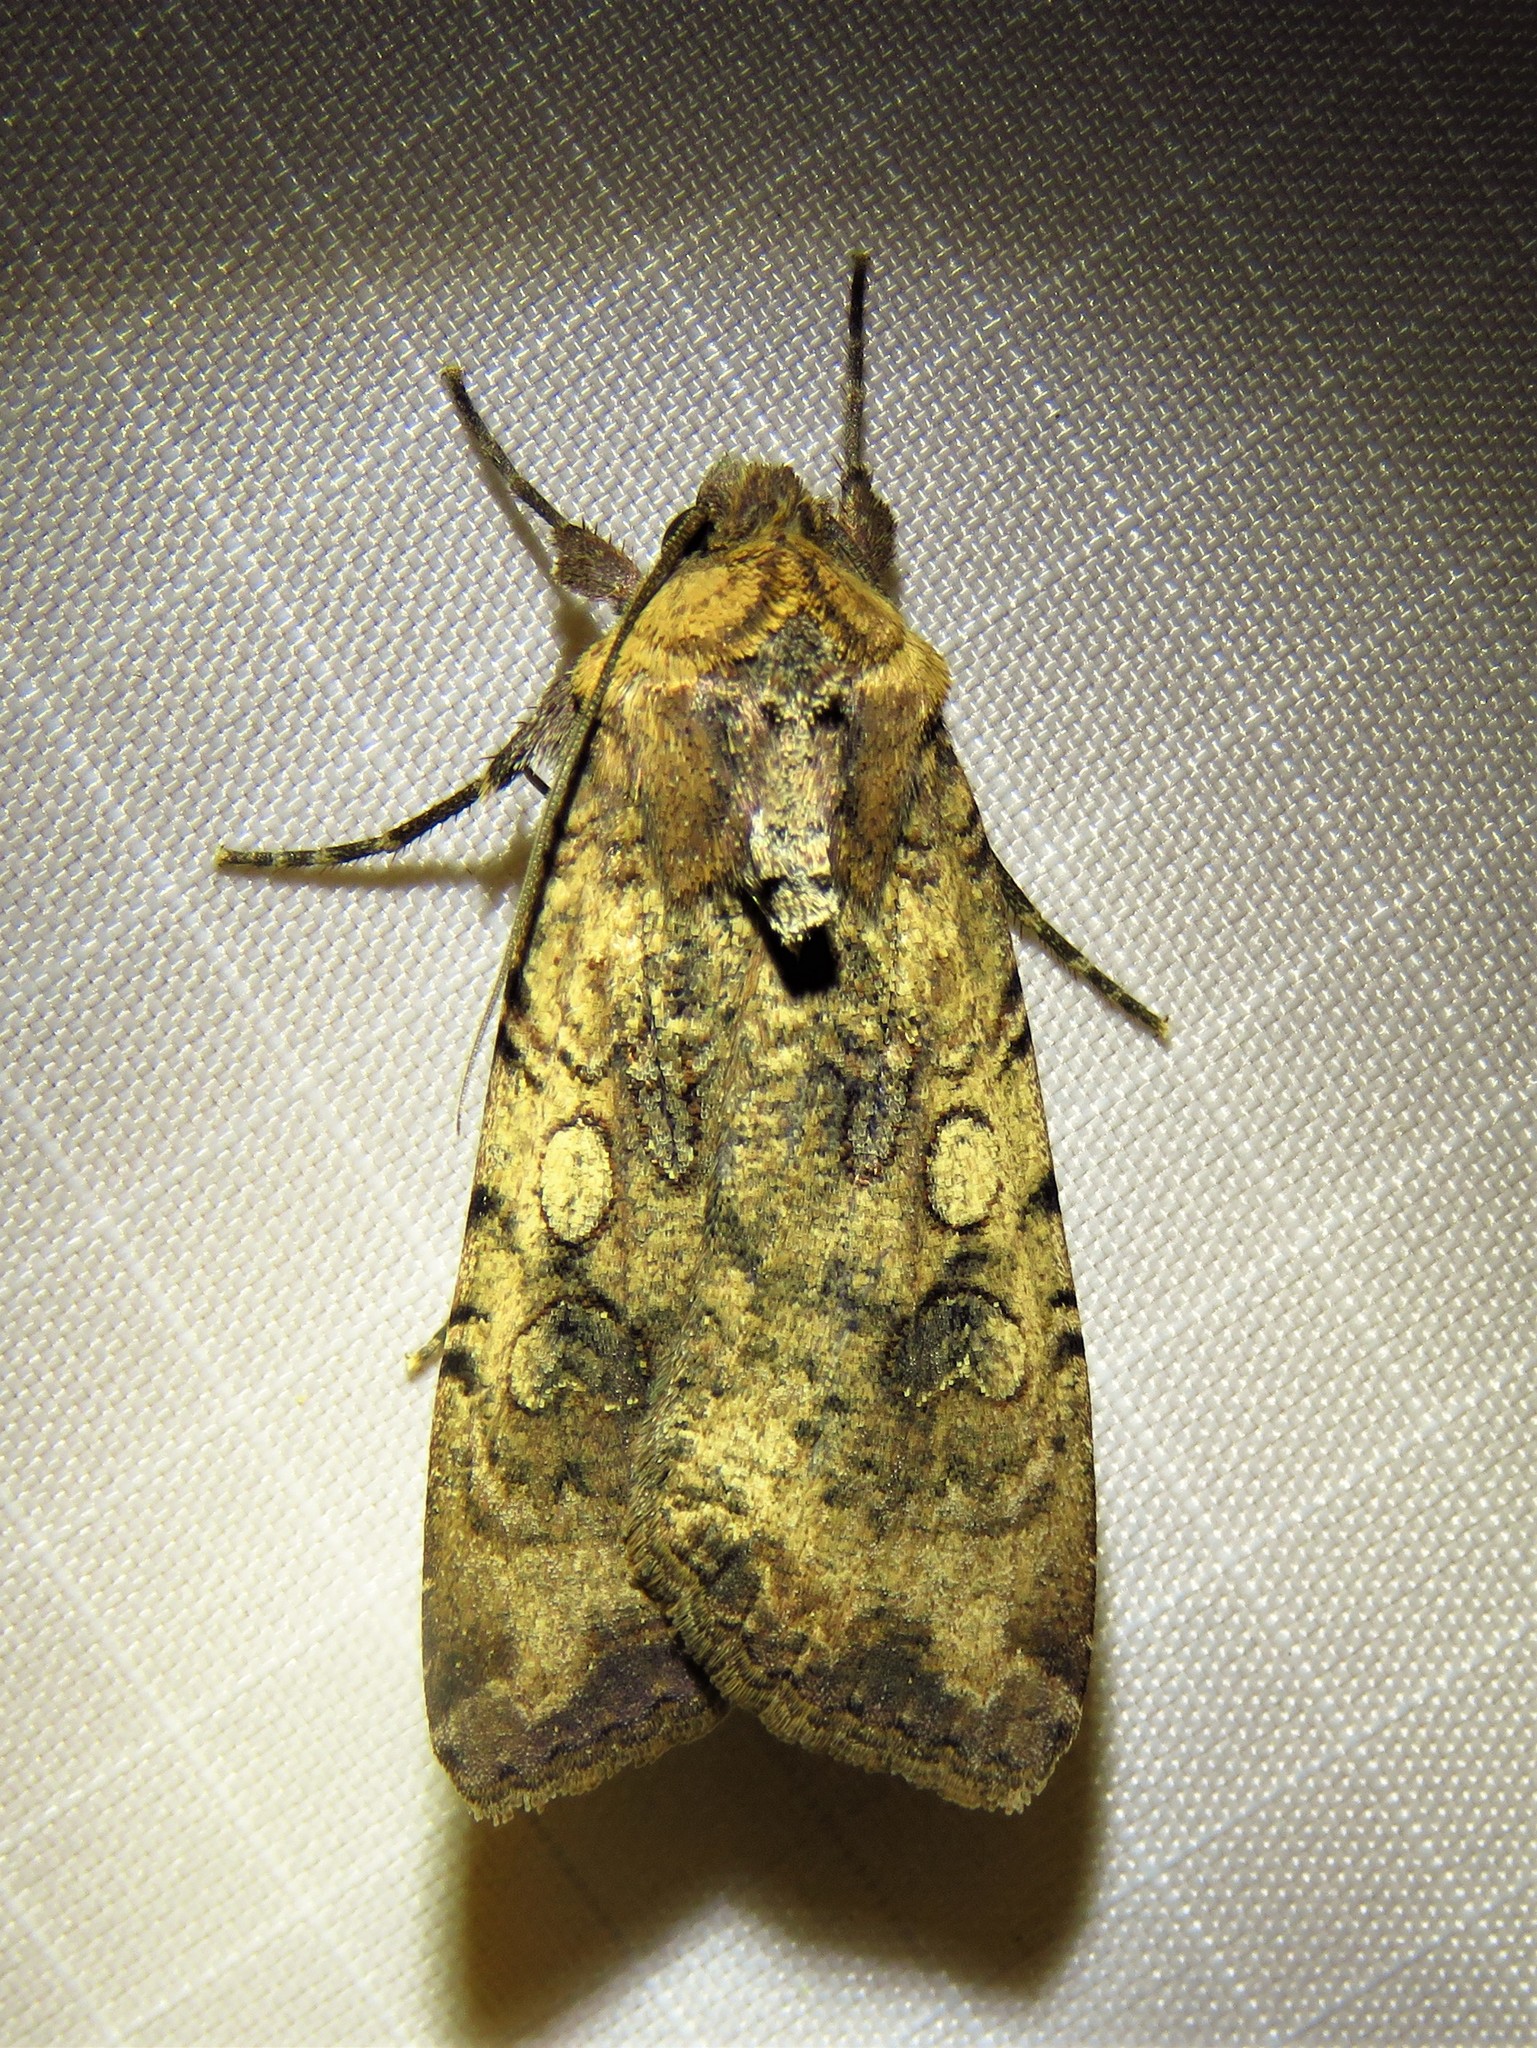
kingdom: Animalia
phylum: Arthropoda
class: Insecta
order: Lepidoptera
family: Noctuidae
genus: Peridroma
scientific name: Peridroma saucia
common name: Pearly underwing
